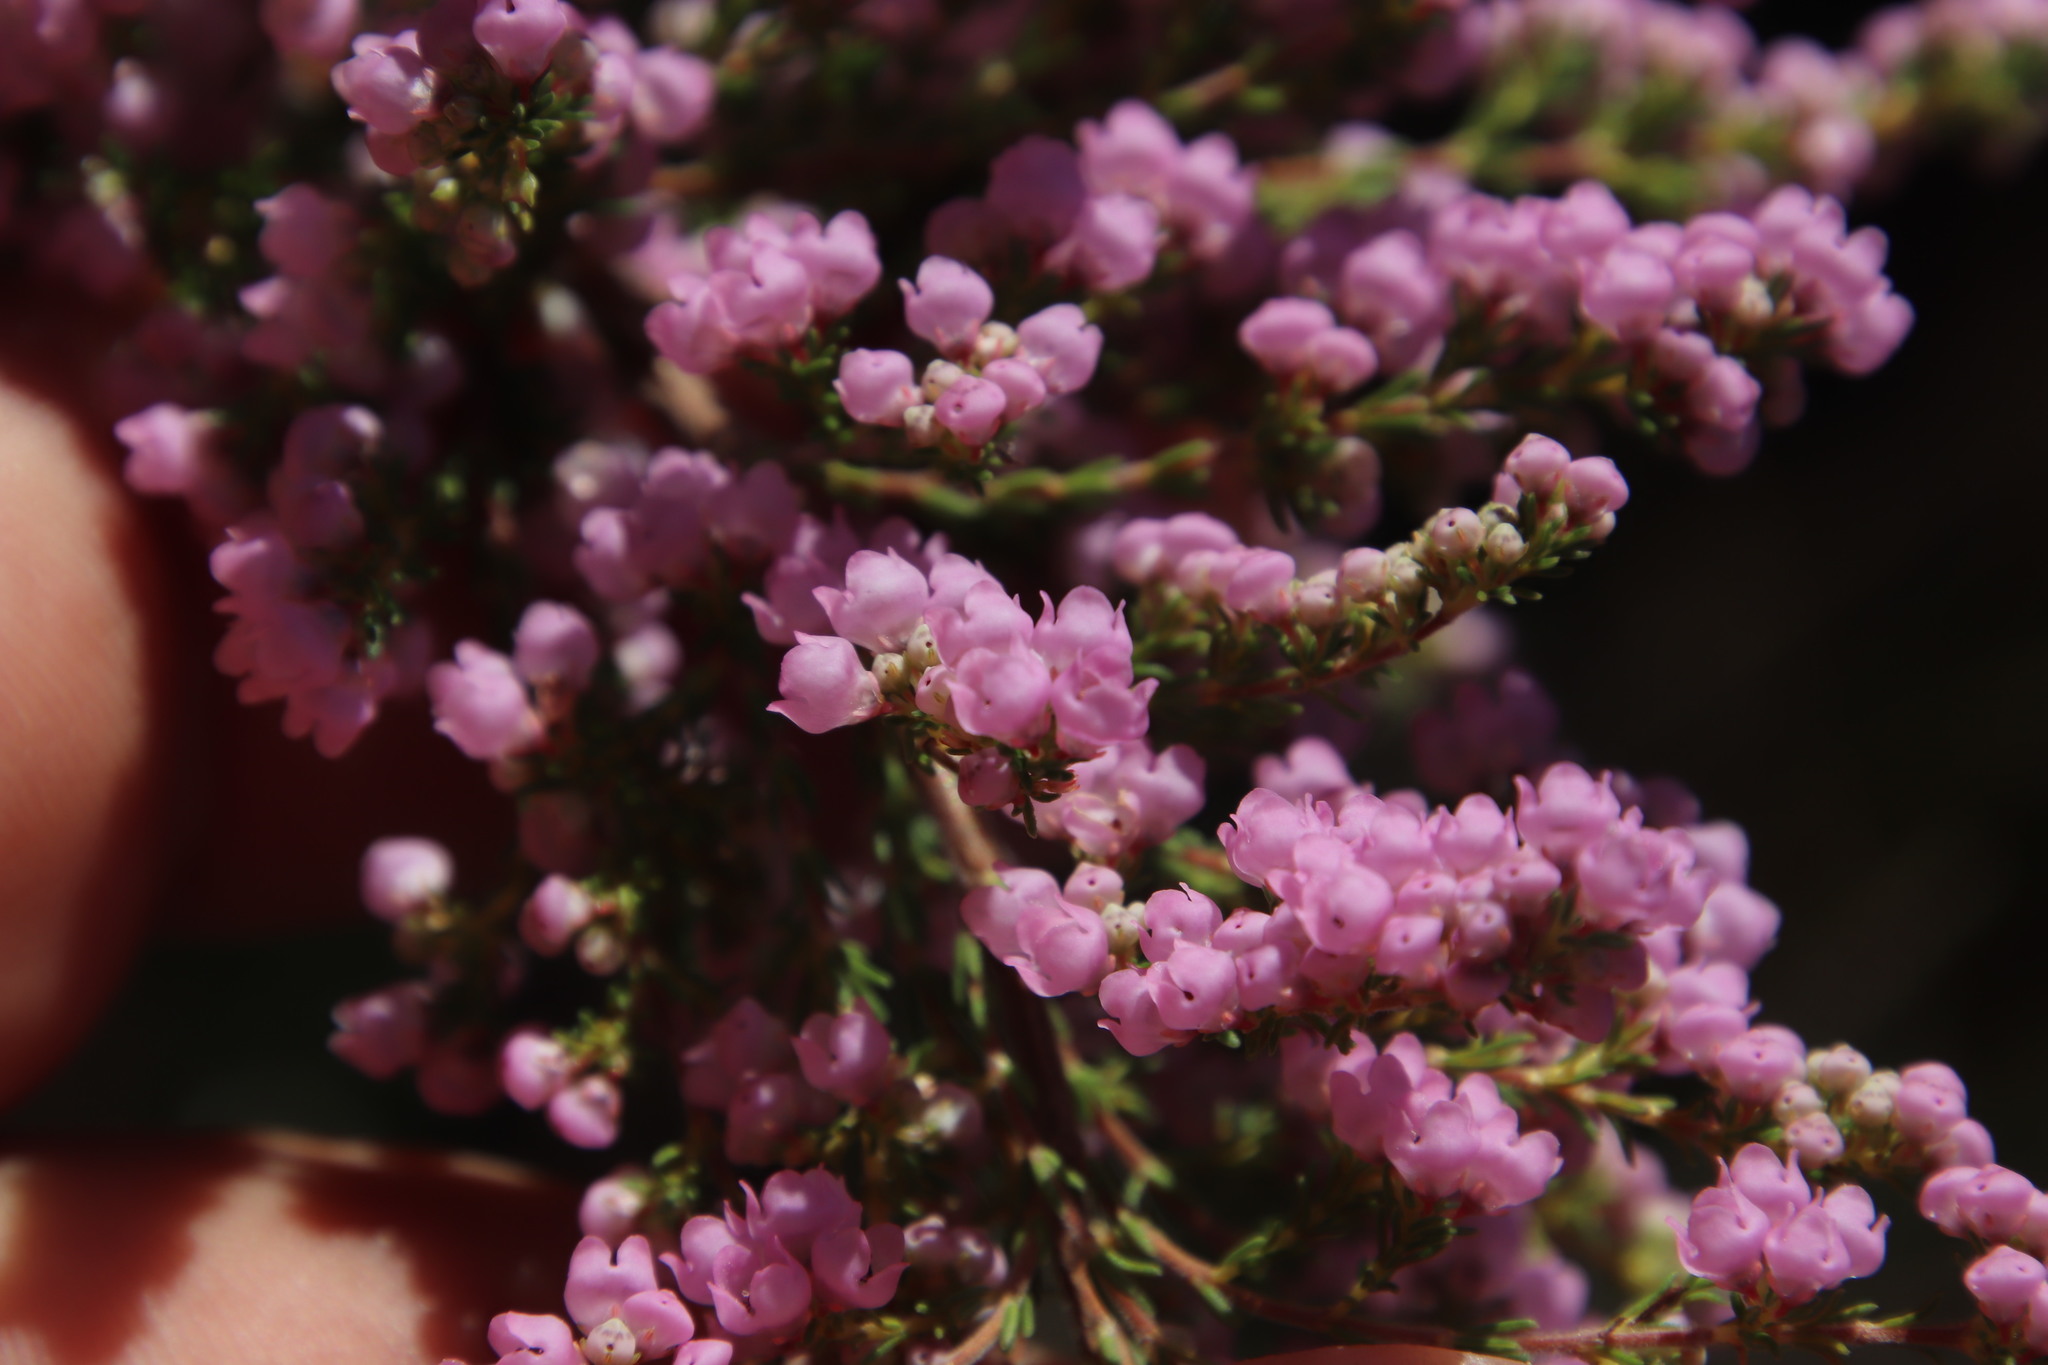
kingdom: Plantae
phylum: Tracheophyta
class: Magnoliopsida
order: Ericales
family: Ericaceae
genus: Erica
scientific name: Erica mauritanica
